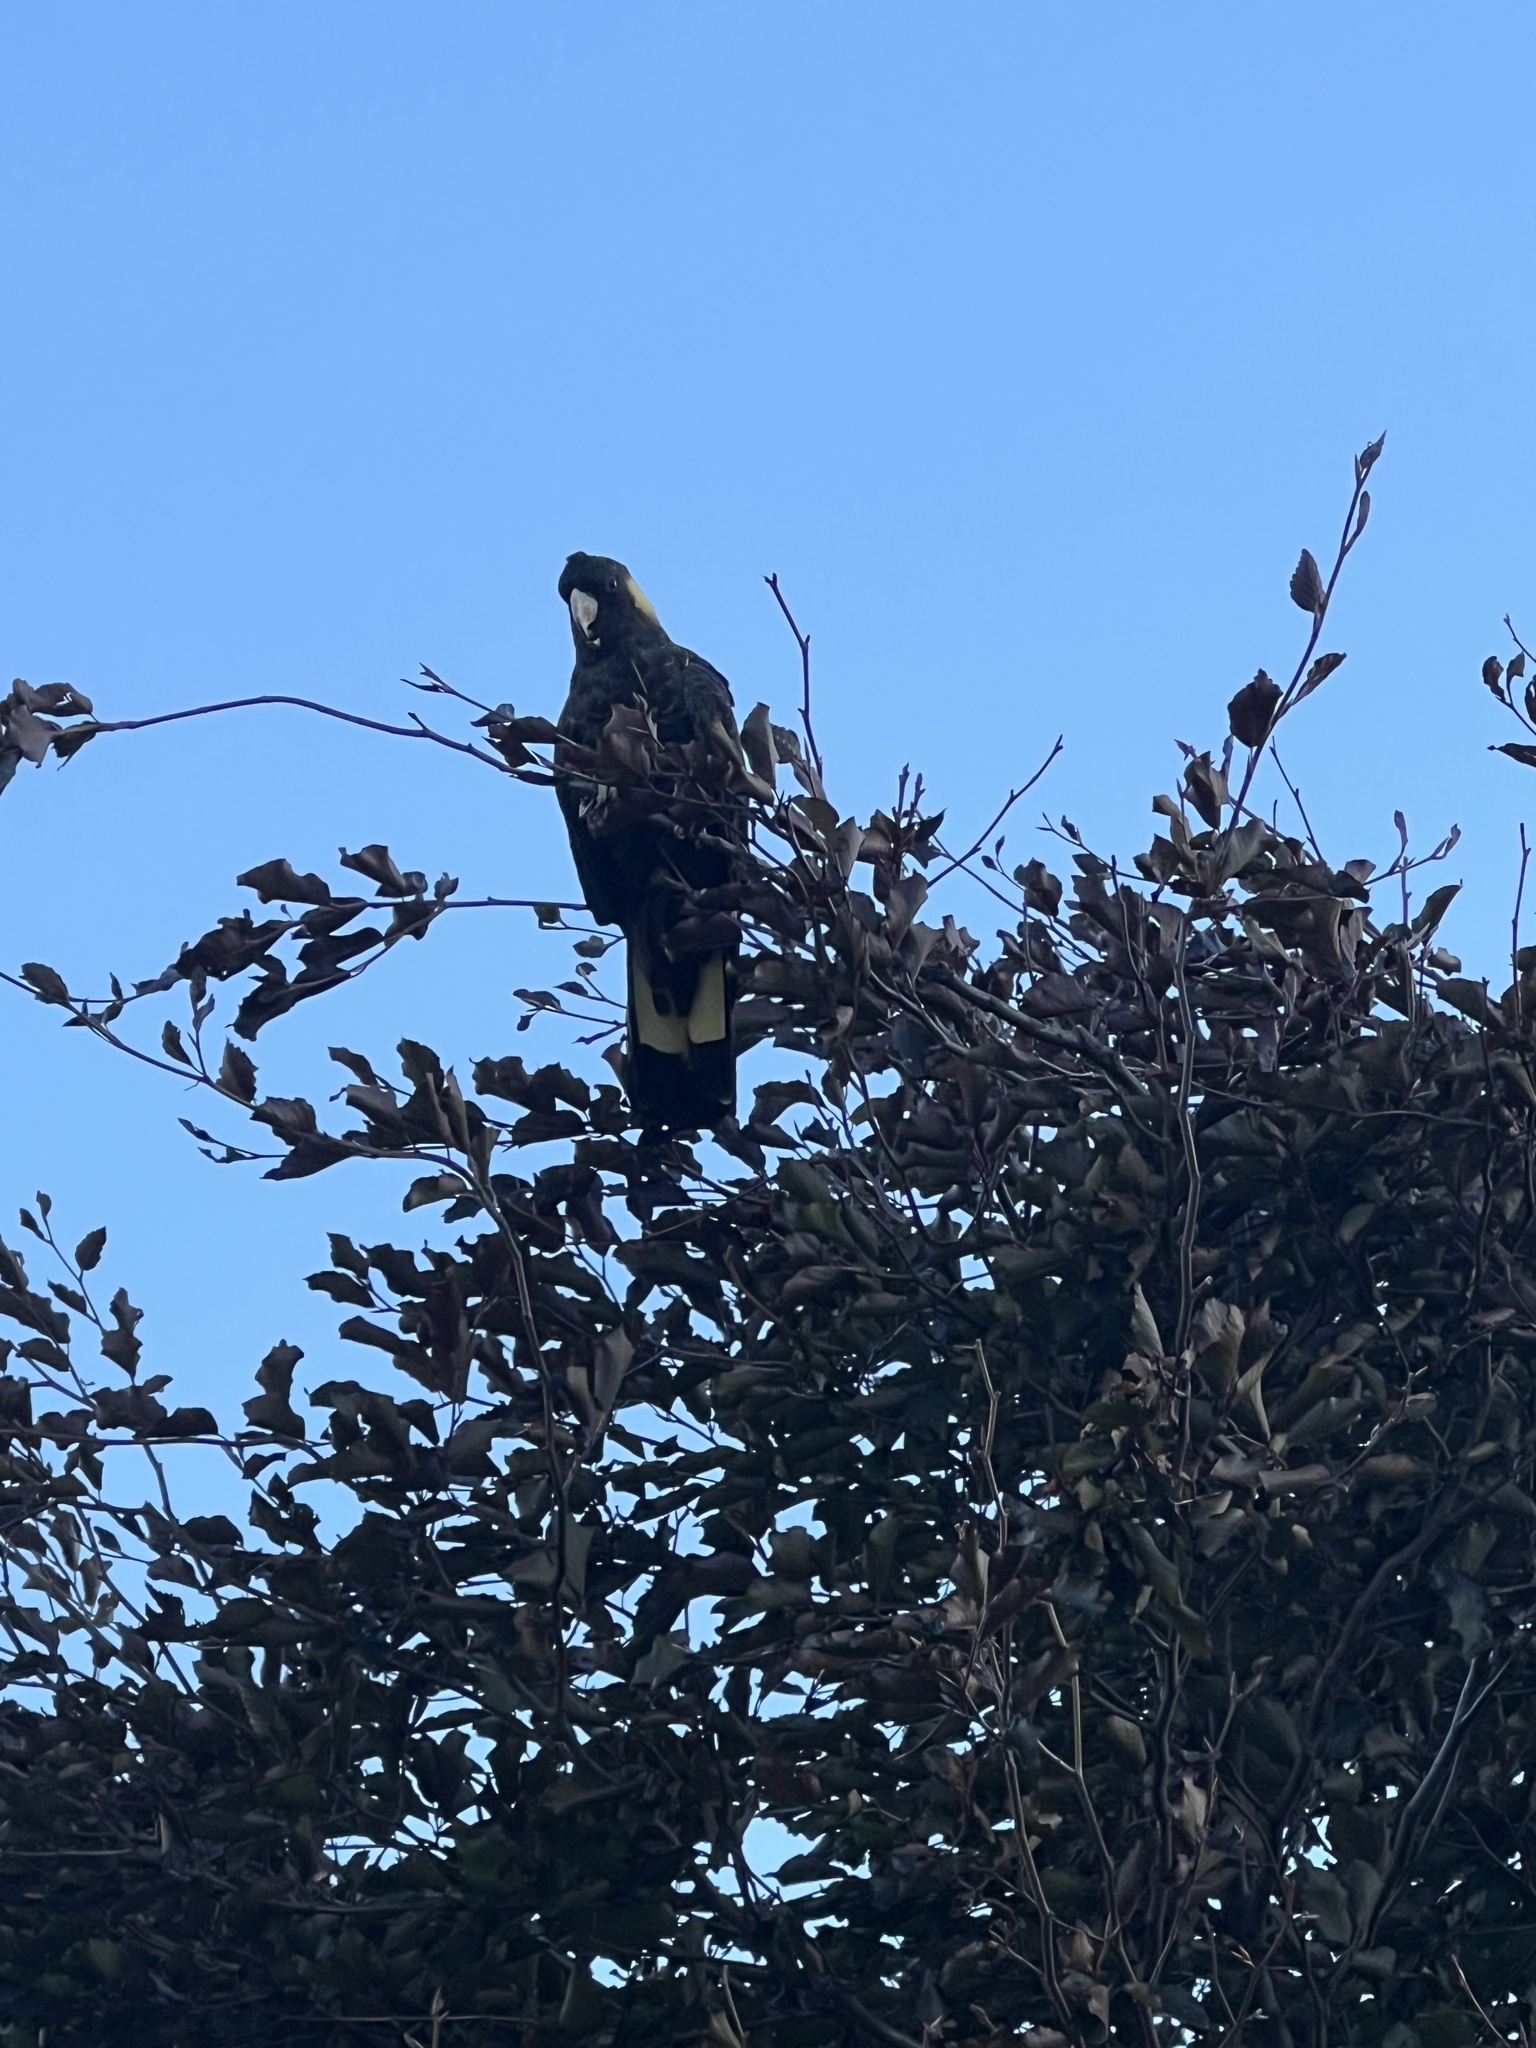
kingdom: Animalia
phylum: Chordata
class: Aves
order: Psittaciformes
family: Cacatuidae
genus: Zanda
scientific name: Zanda funerea
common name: Yellow-tailed black-cockatoo
